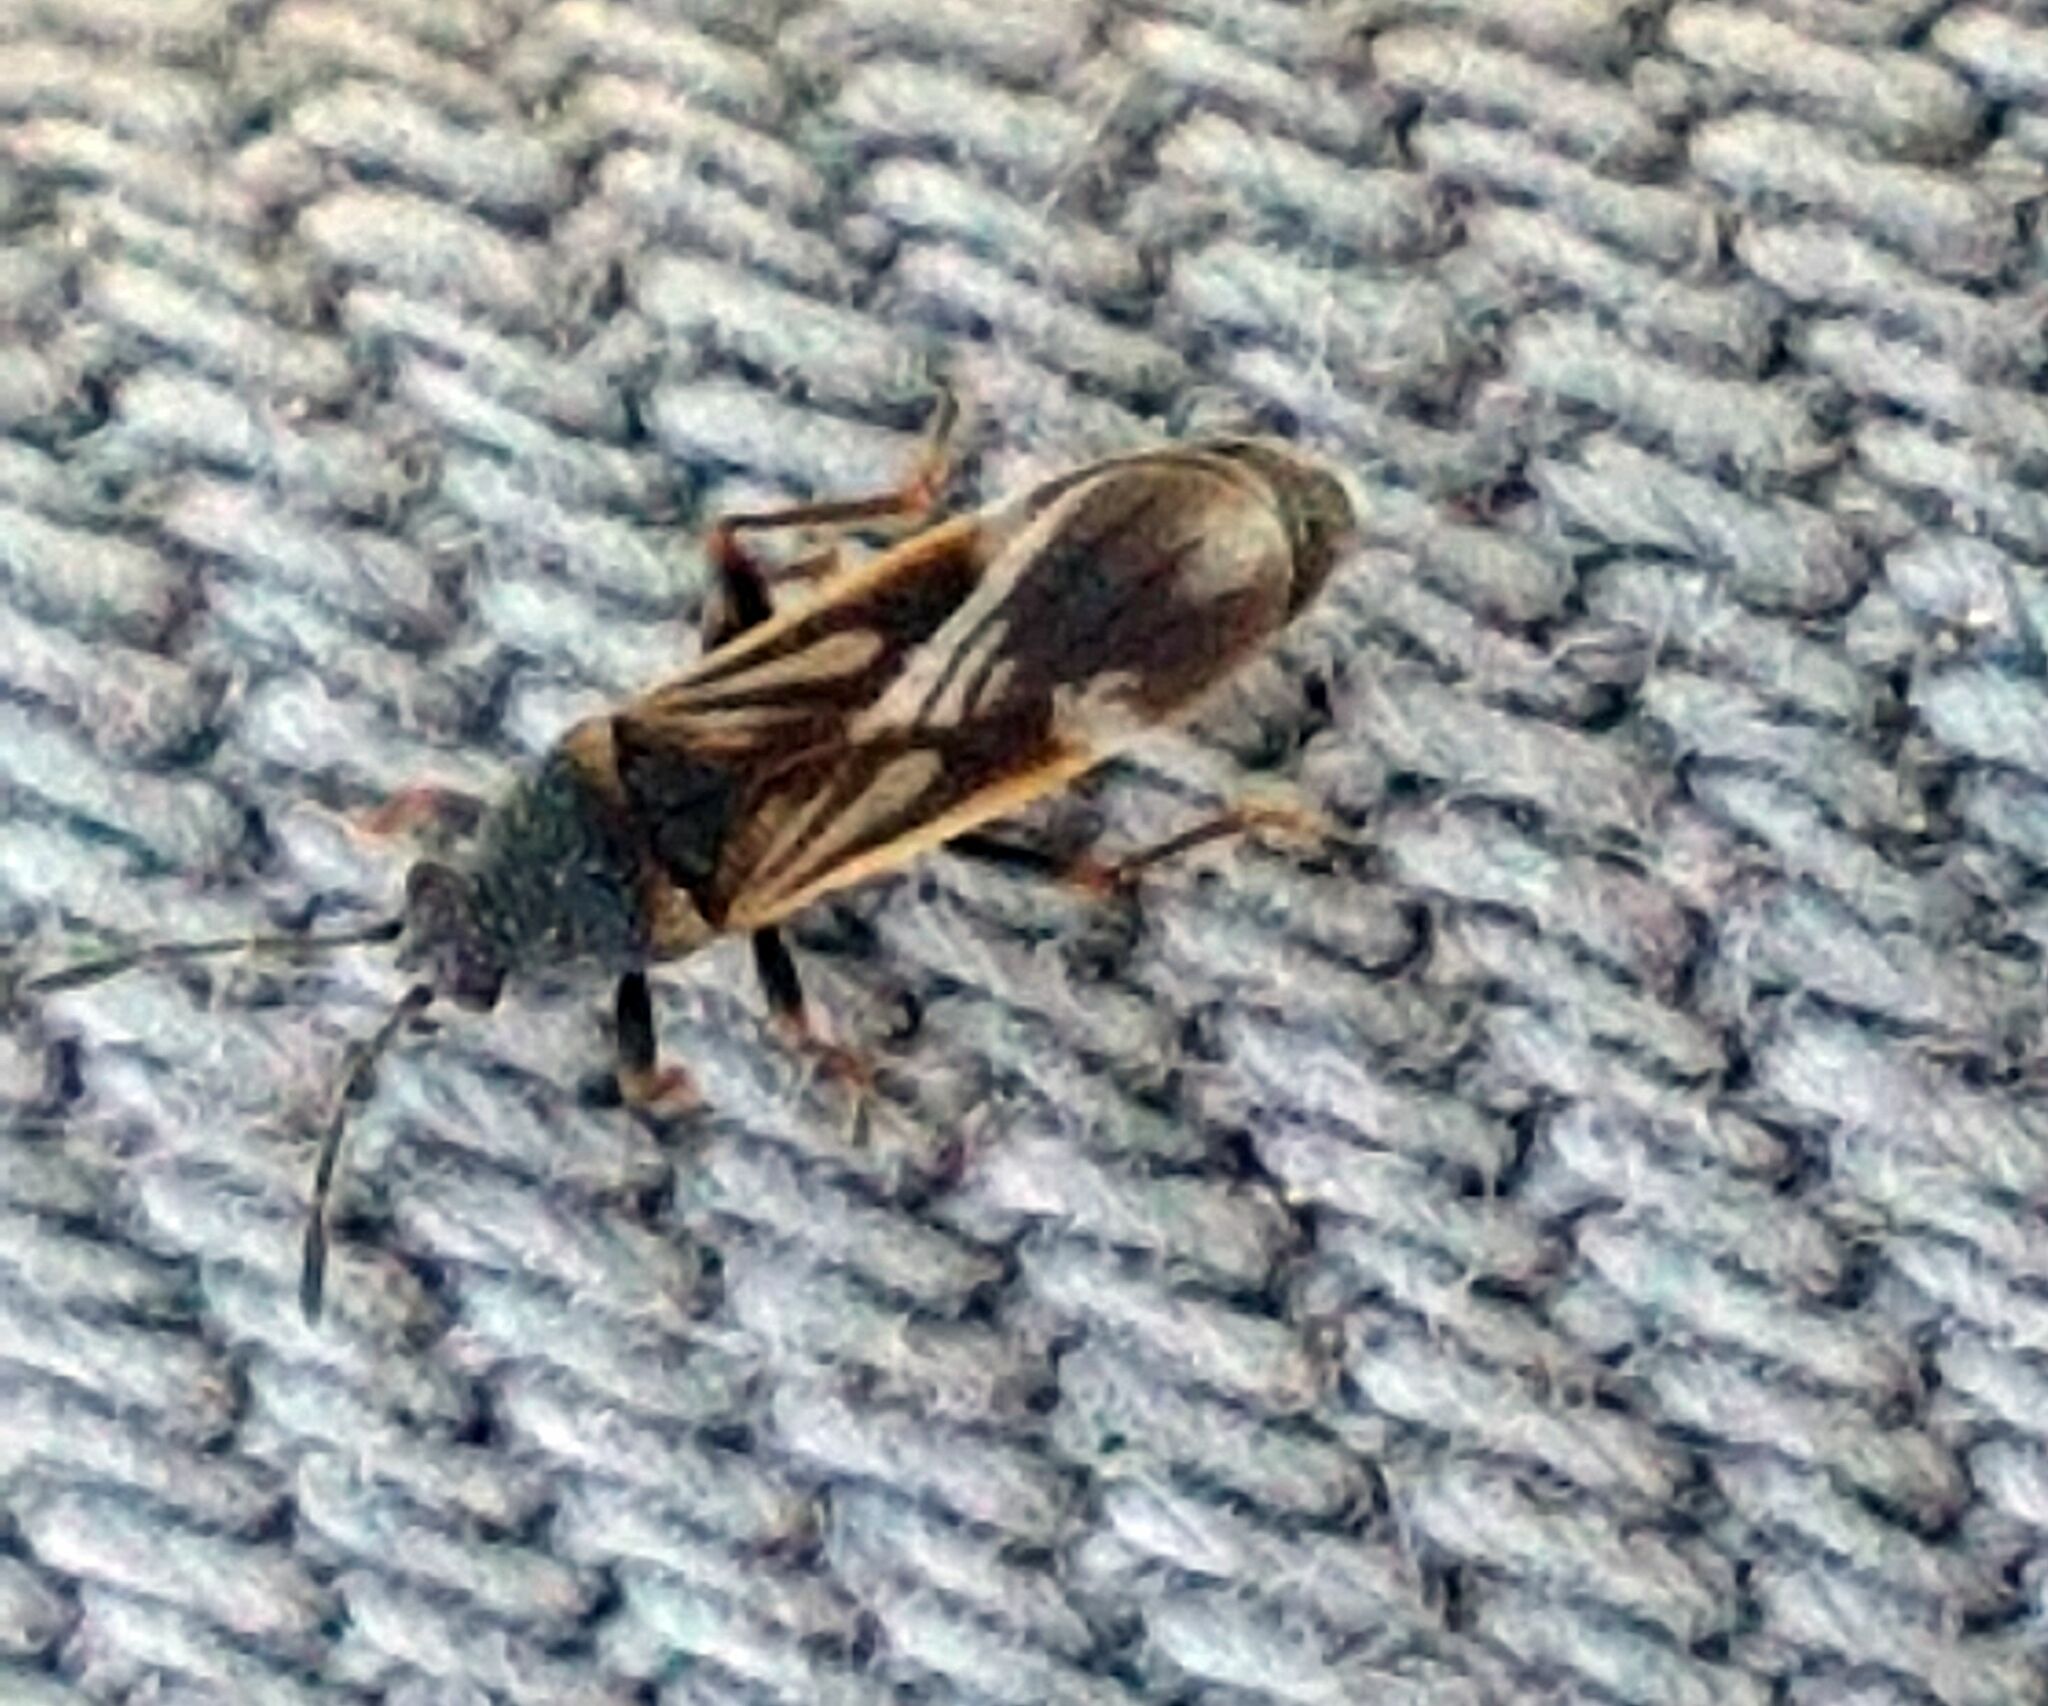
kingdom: Animalia
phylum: Arthropoda
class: Insecta
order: Hemiptera
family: Blissidae
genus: Ischnodemus
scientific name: Ischnodemus sabuleti
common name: European cinchbug
